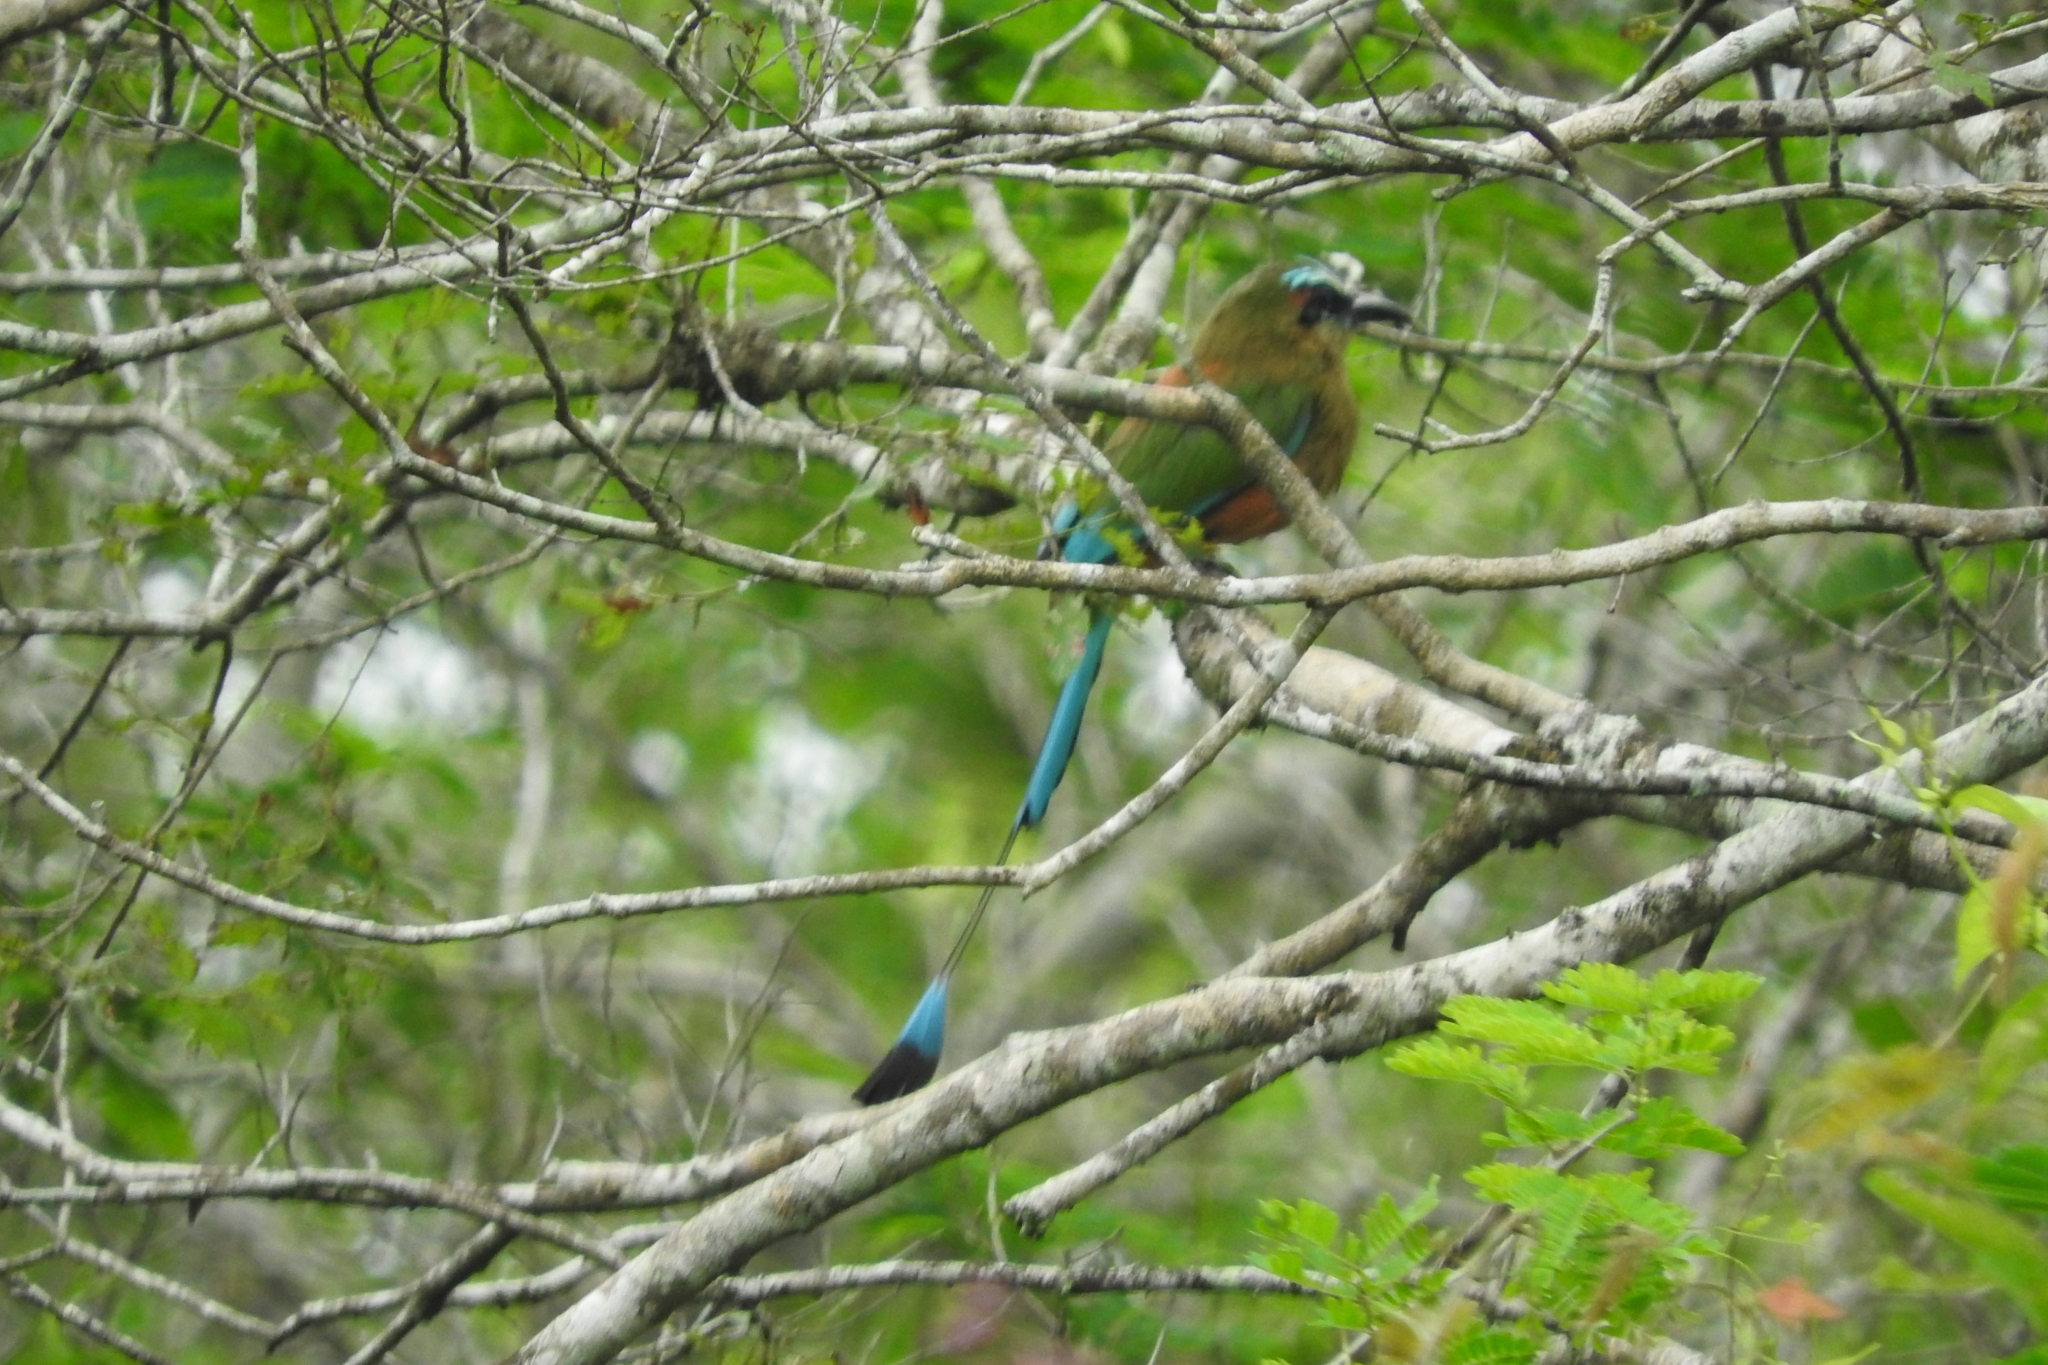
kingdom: Animalia
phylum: Chordata
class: Aves
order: Coraciiformes
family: Momotidae
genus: Eumomota
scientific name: Eumomota superciliosa
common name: Turquoise-browed motmot
